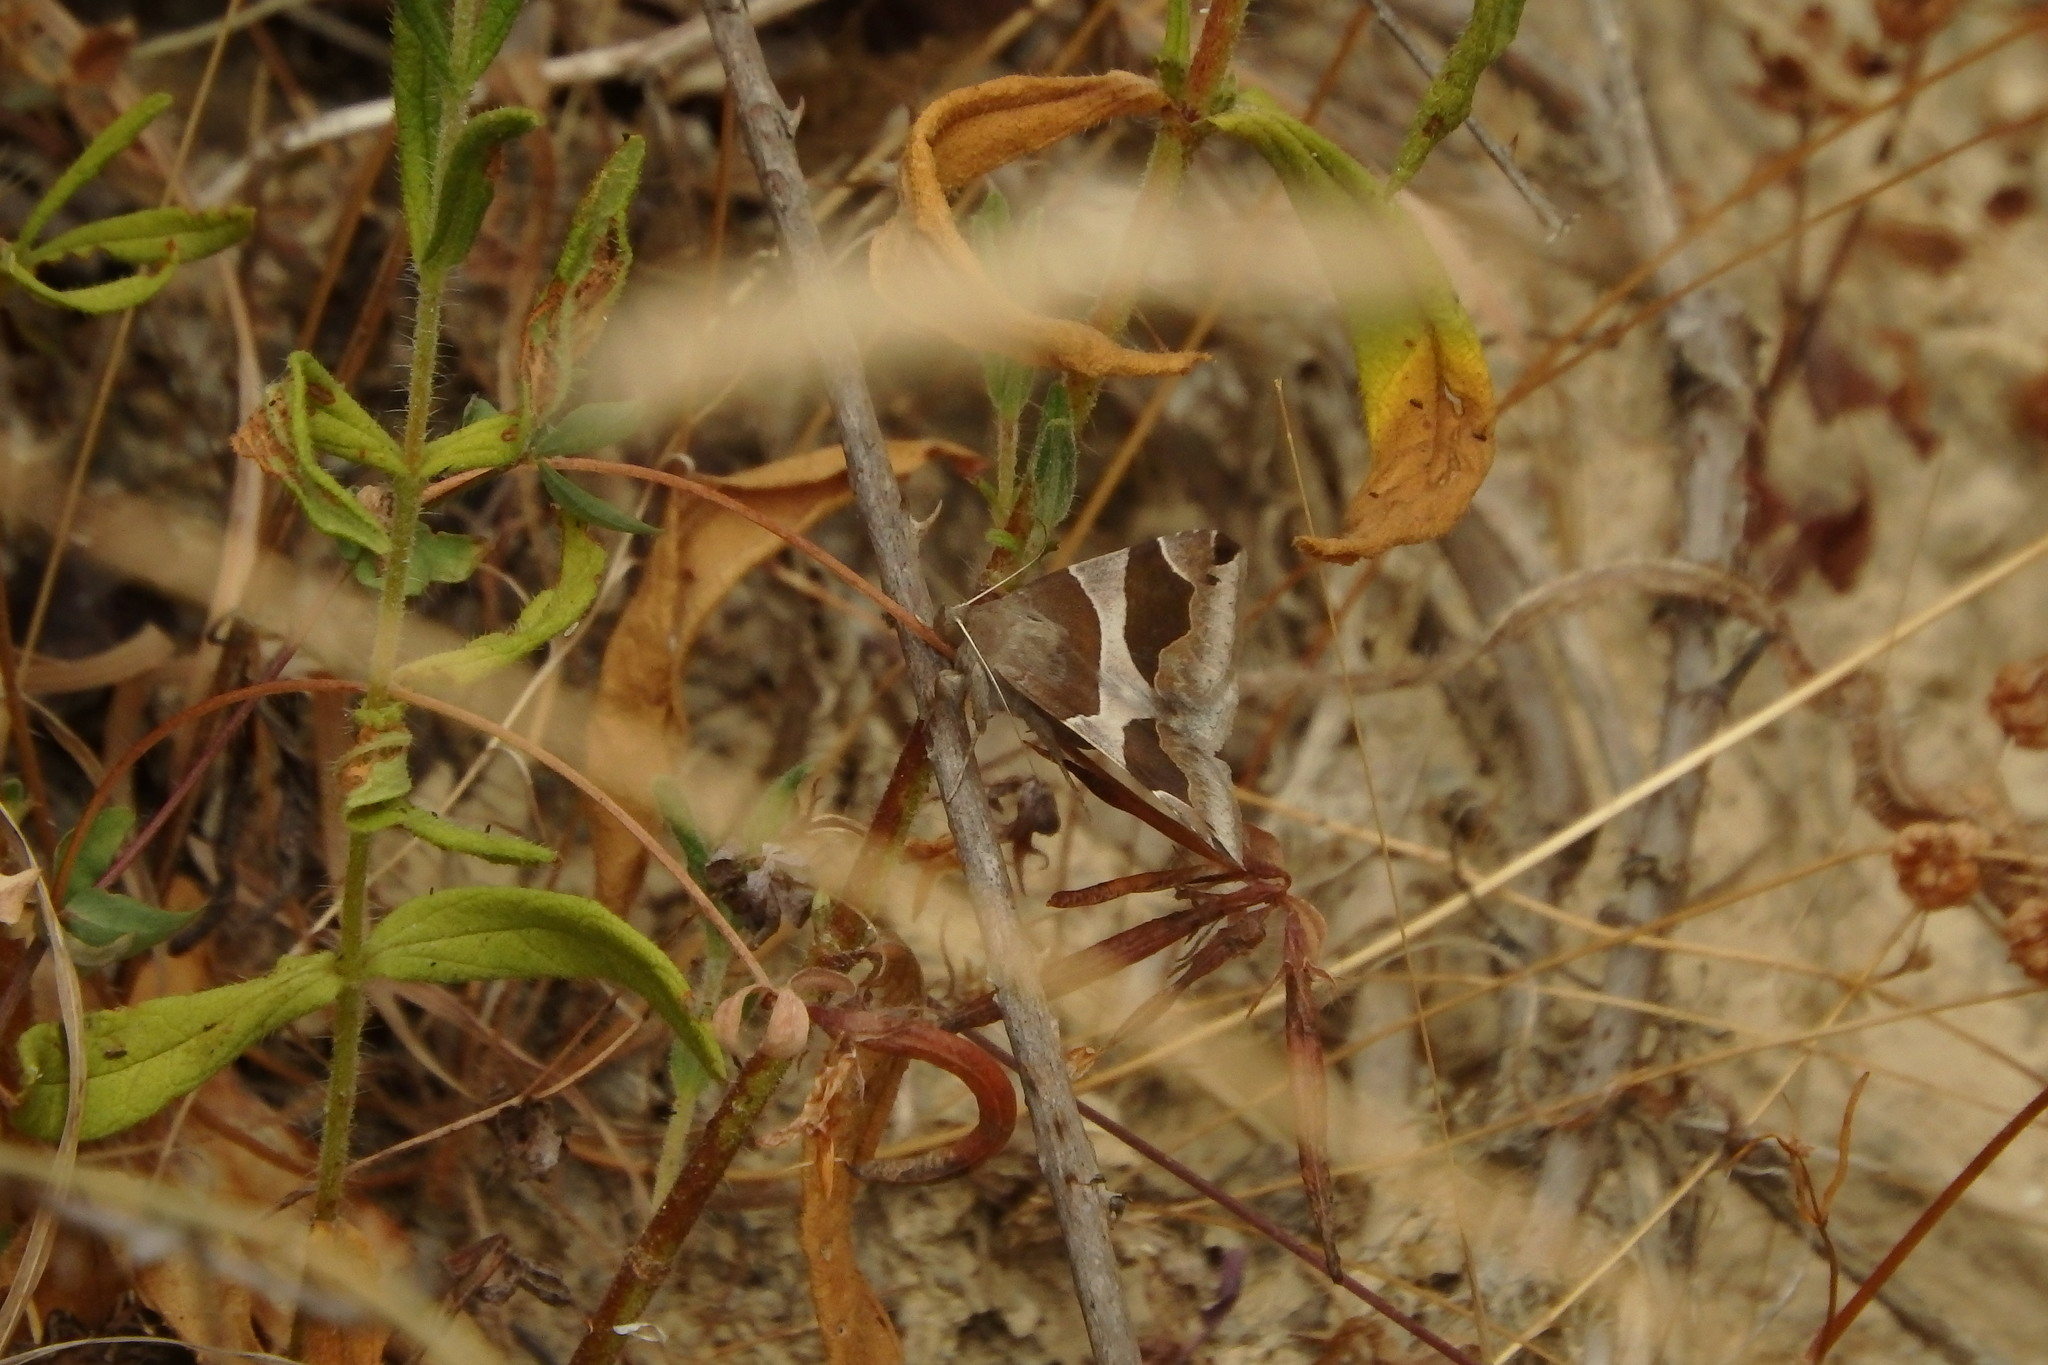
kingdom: Animalia
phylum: Arthropoda
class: Insecta
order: Lepidoptera
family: Erebidae
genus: Dysgonia
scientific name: Dysgonia algira
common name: Passenger
